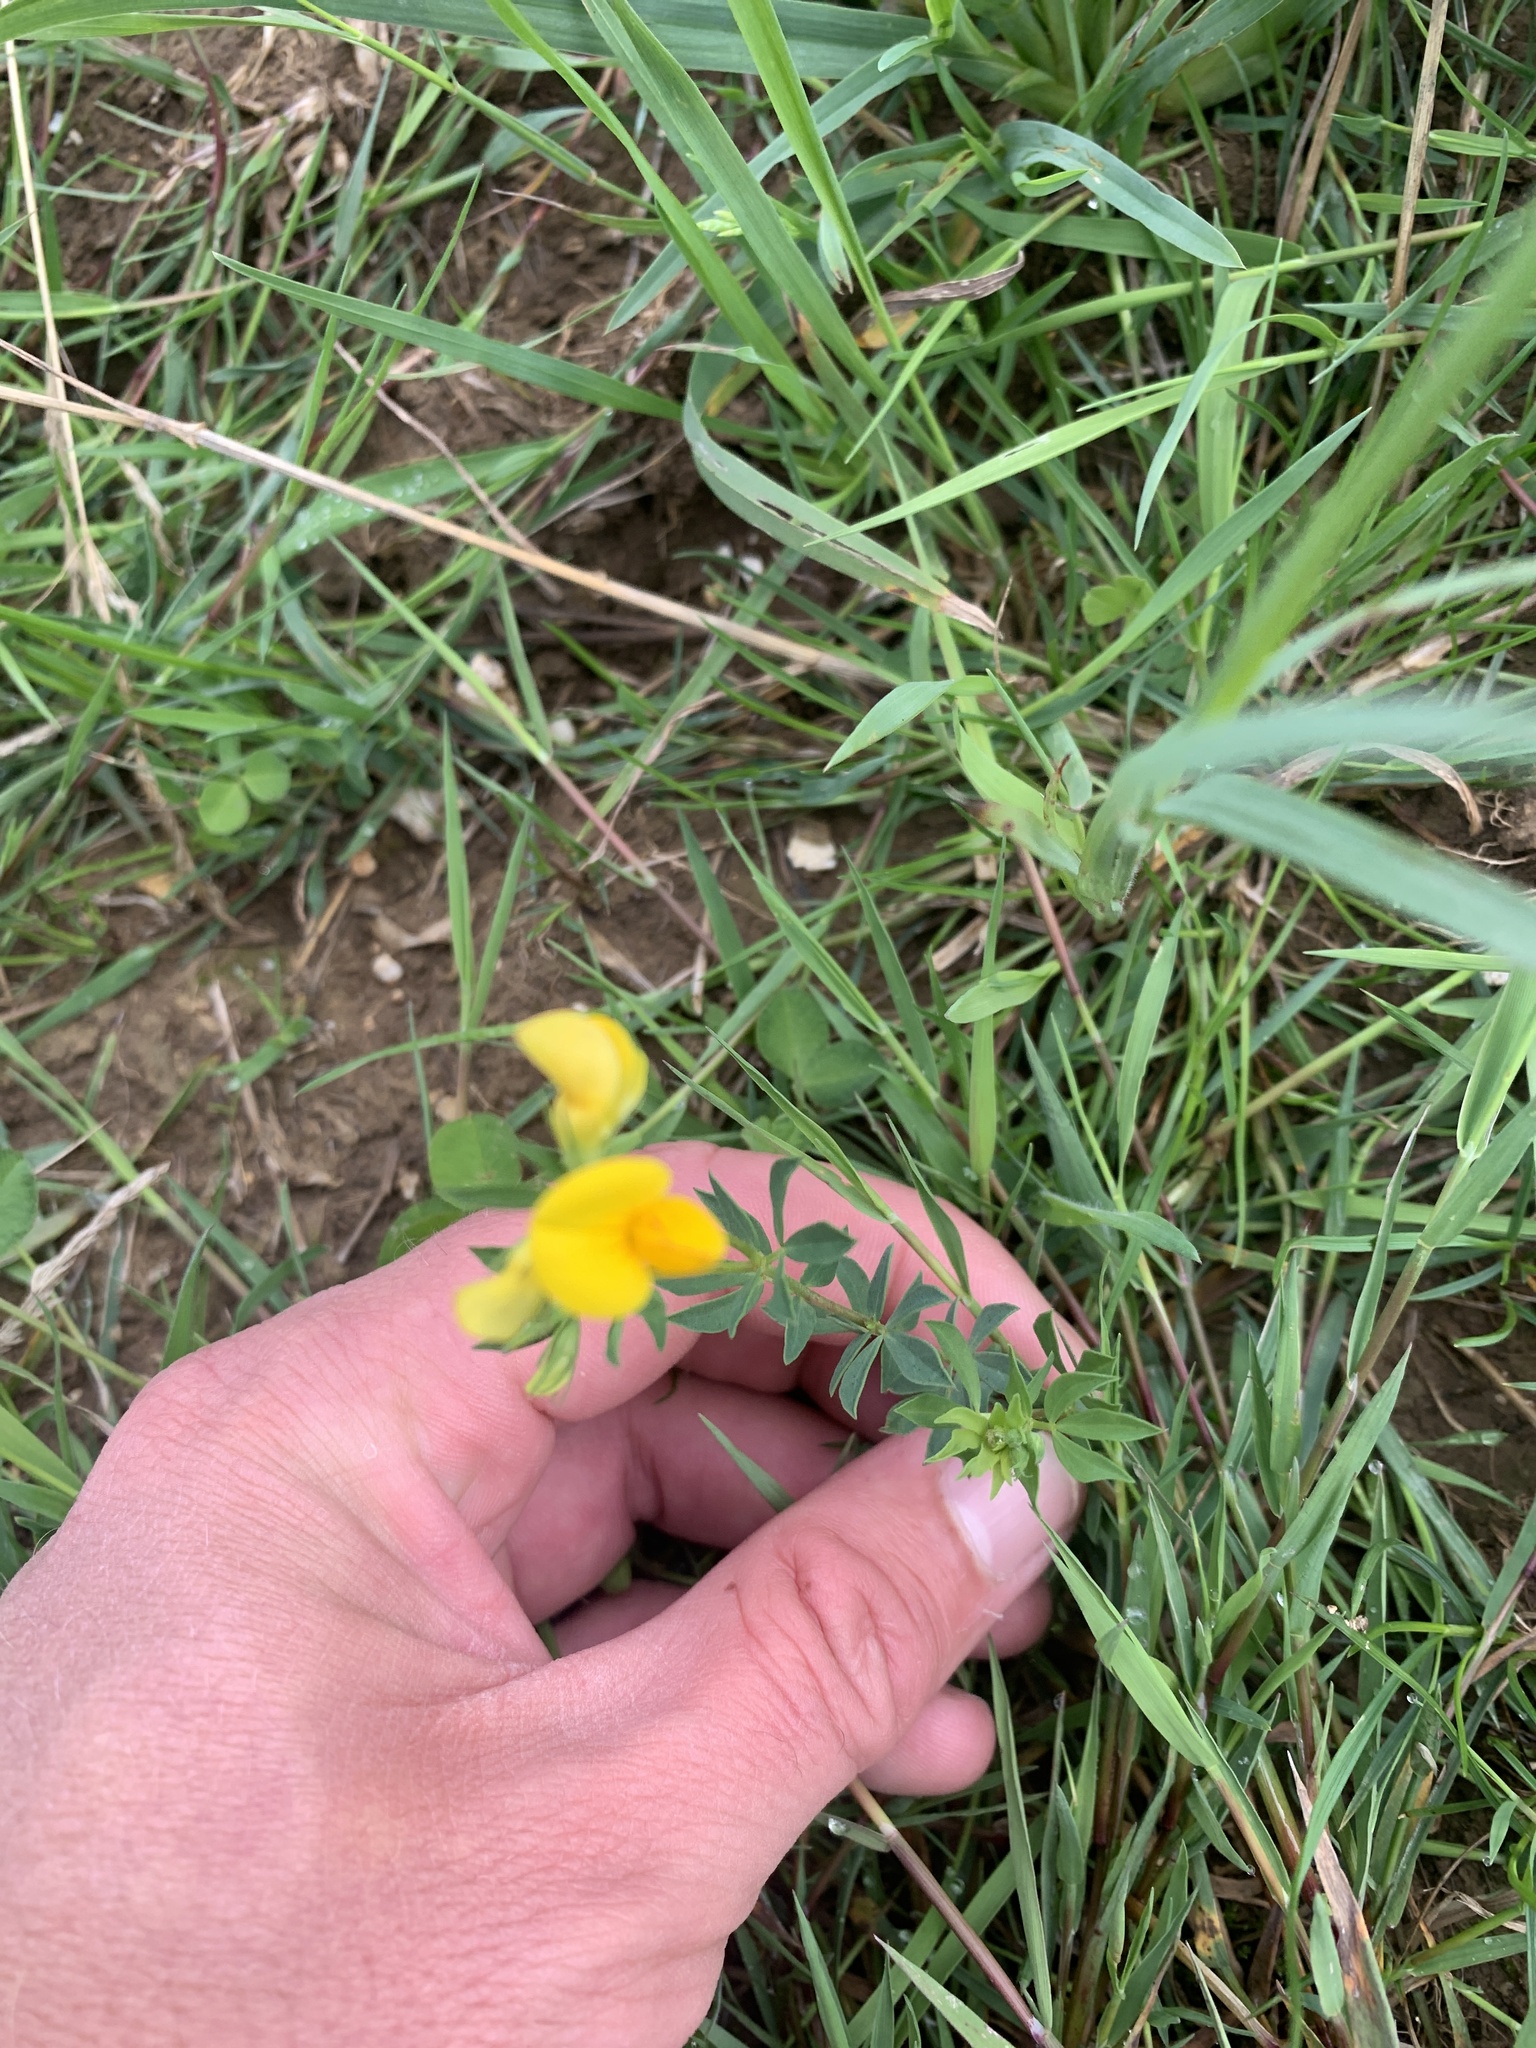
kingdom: Plantae
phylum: Tracheophyta
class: Magnoliopsida
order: Fabales
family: Fabaceae
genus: Lotus
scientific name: Lotus corniculatus
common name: Common bird's-foot-trefoil
